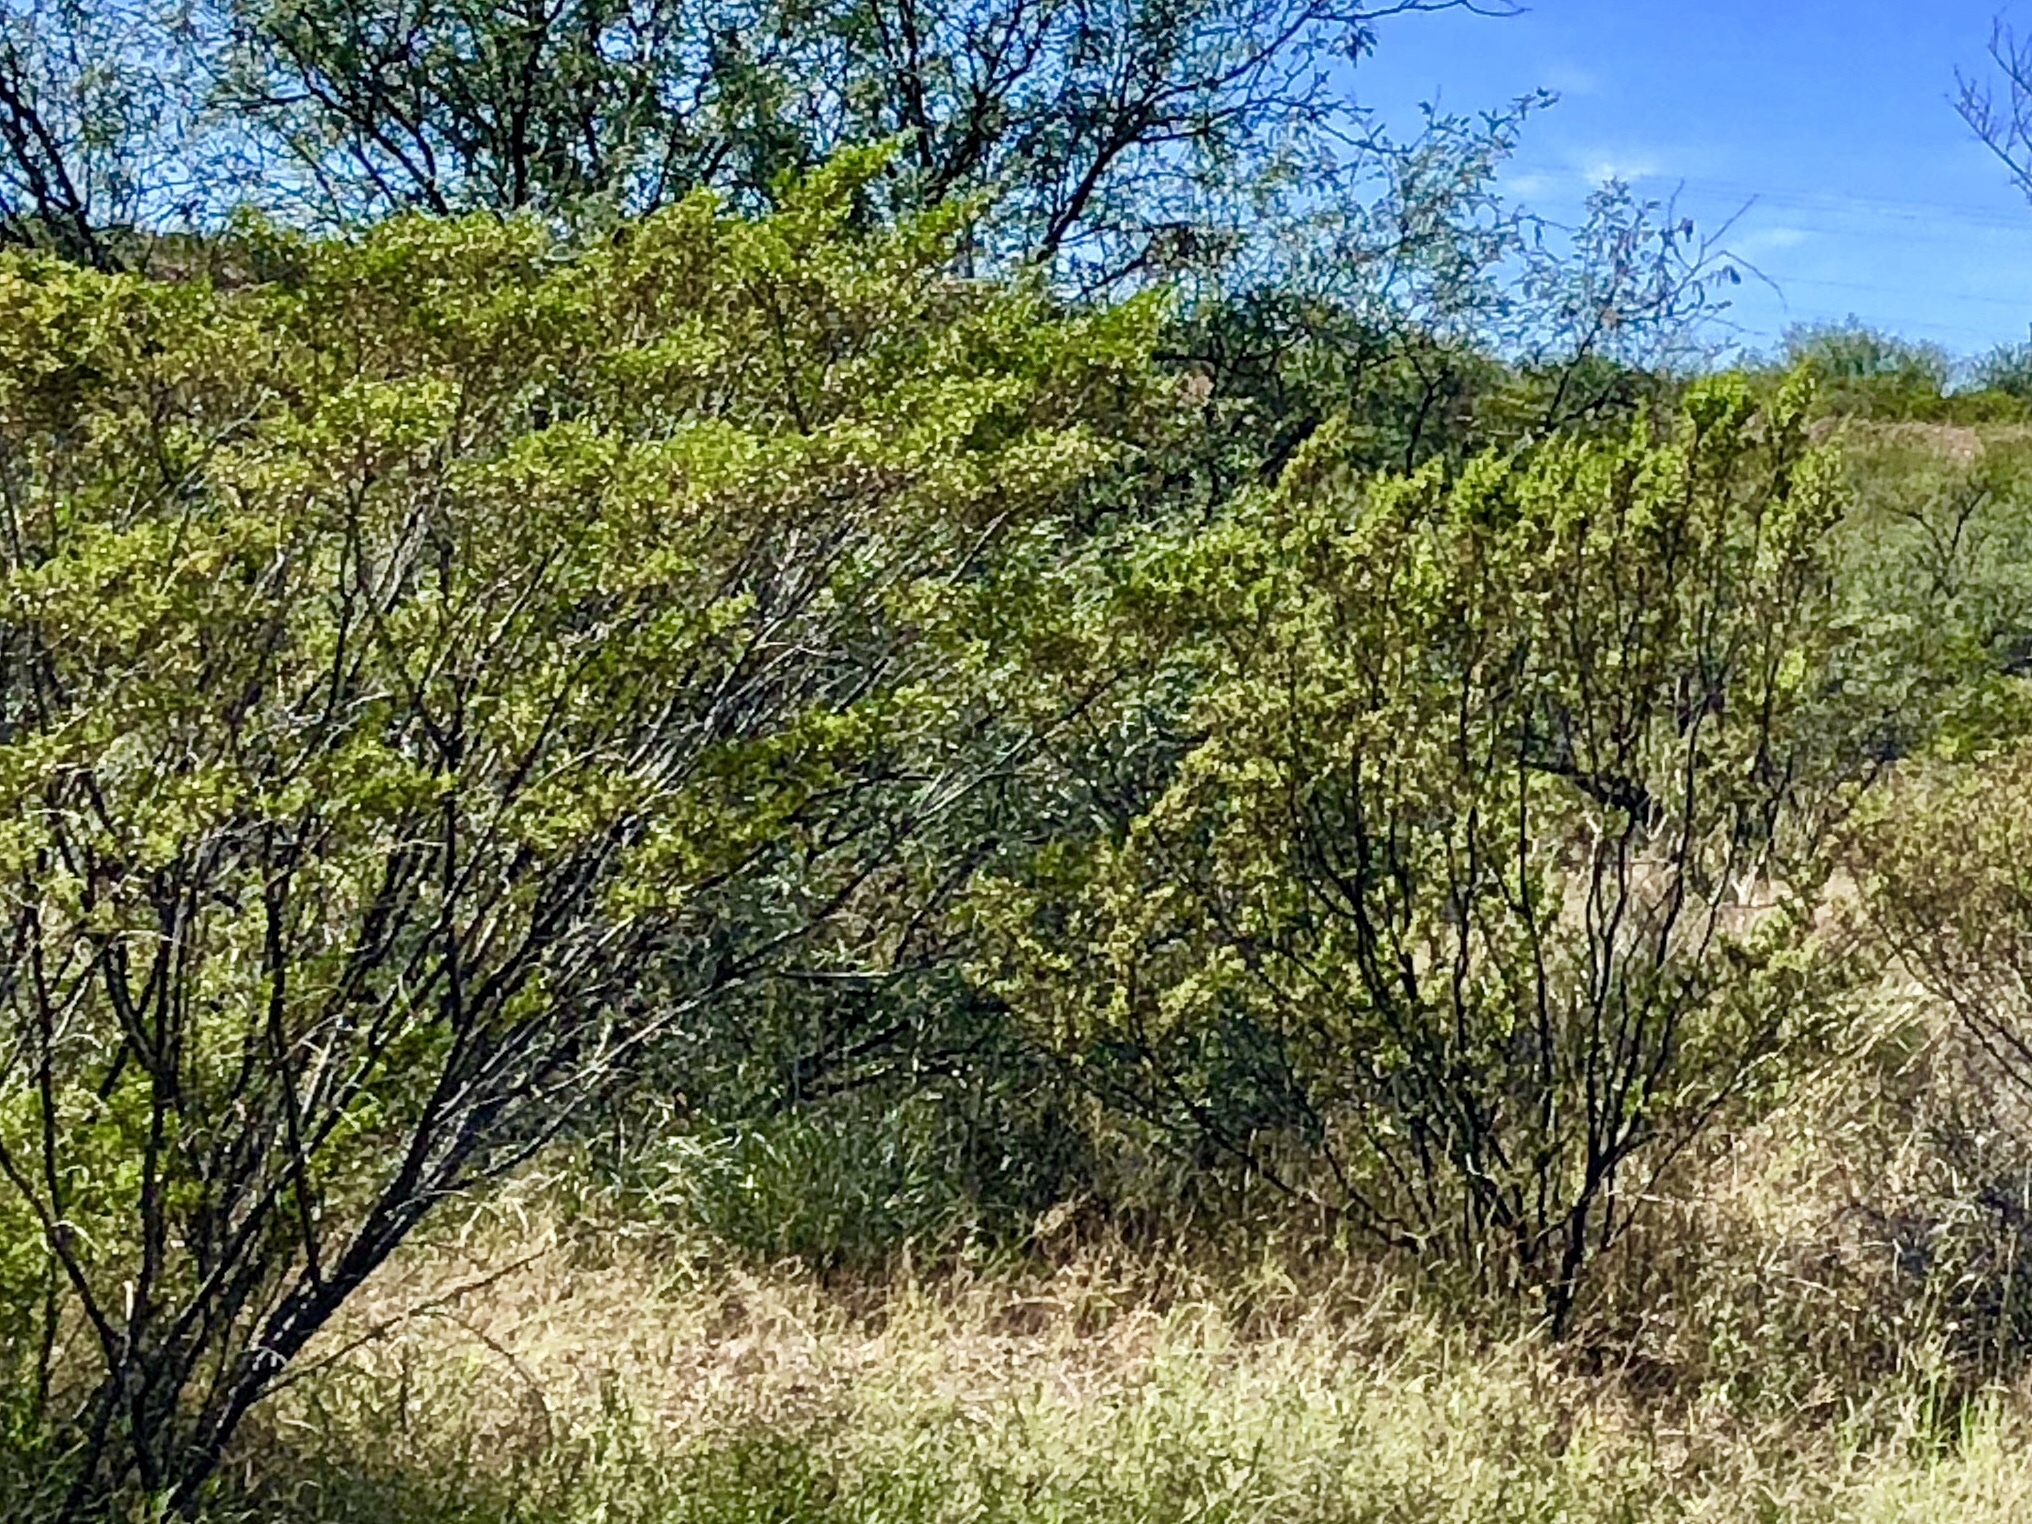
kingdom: Plantae
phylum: Tracheophyta
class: Magnoliopsida
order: Zygophyllales
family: Zygophyllaceae
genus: Larrea
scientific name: Larrea tridentata
